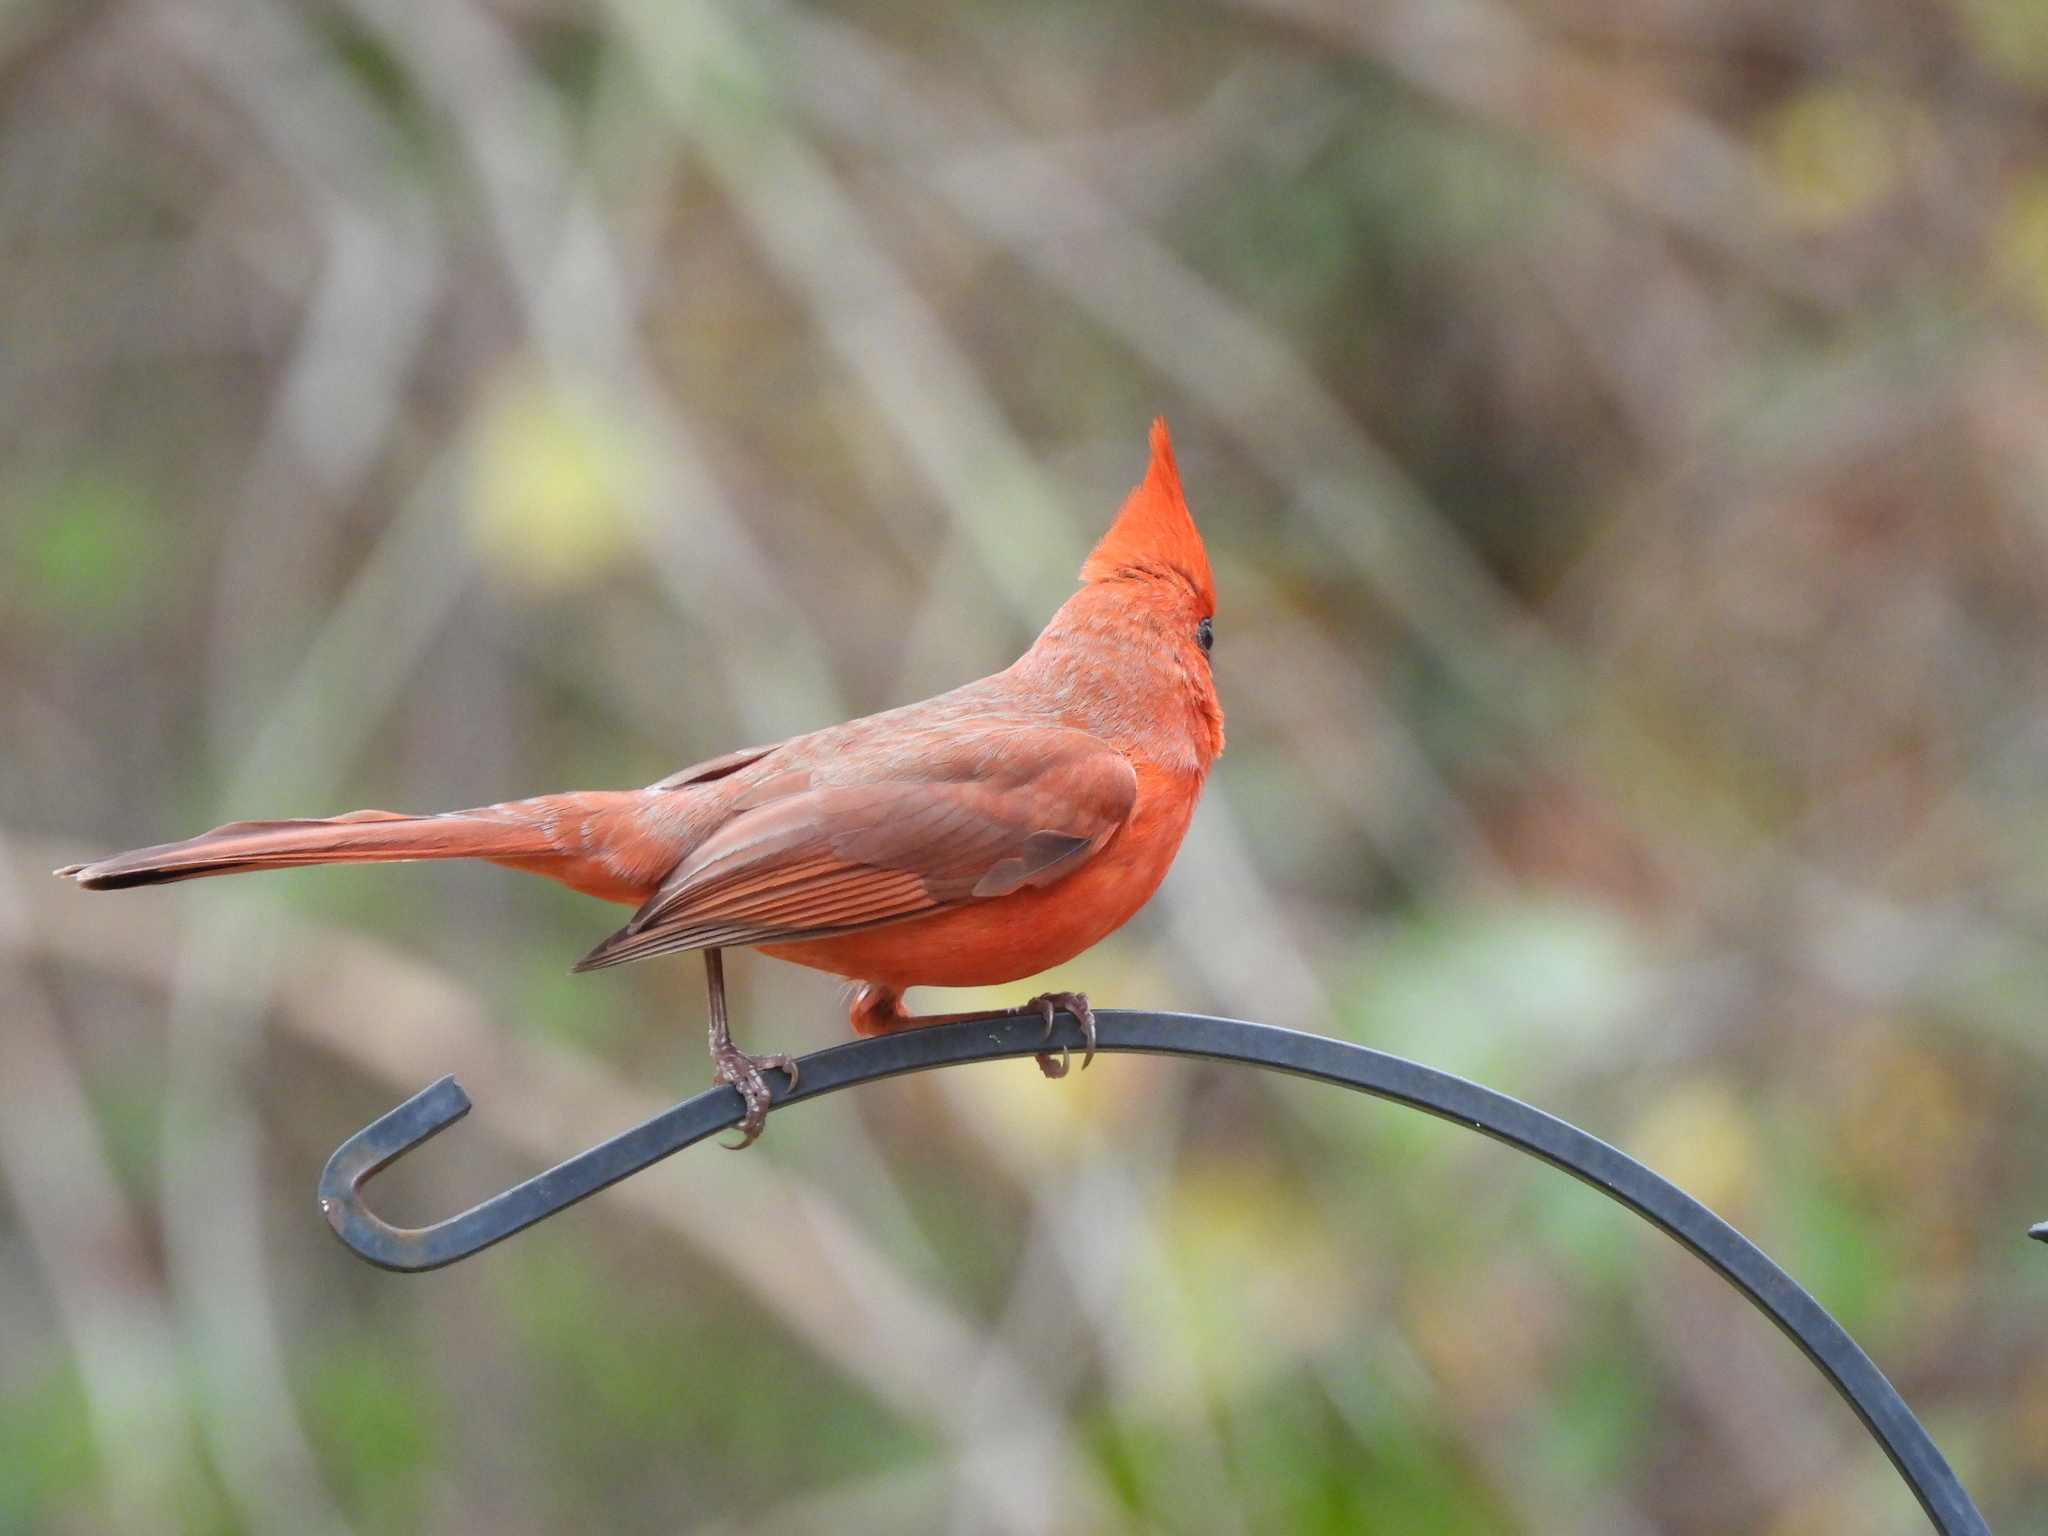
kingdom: Animalia
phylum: Chordata
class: Aves
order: Passeriformes
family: Cardinalidae
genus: Cardinalis
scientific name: Cardinalis cardinalis
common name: Northern cardinal
